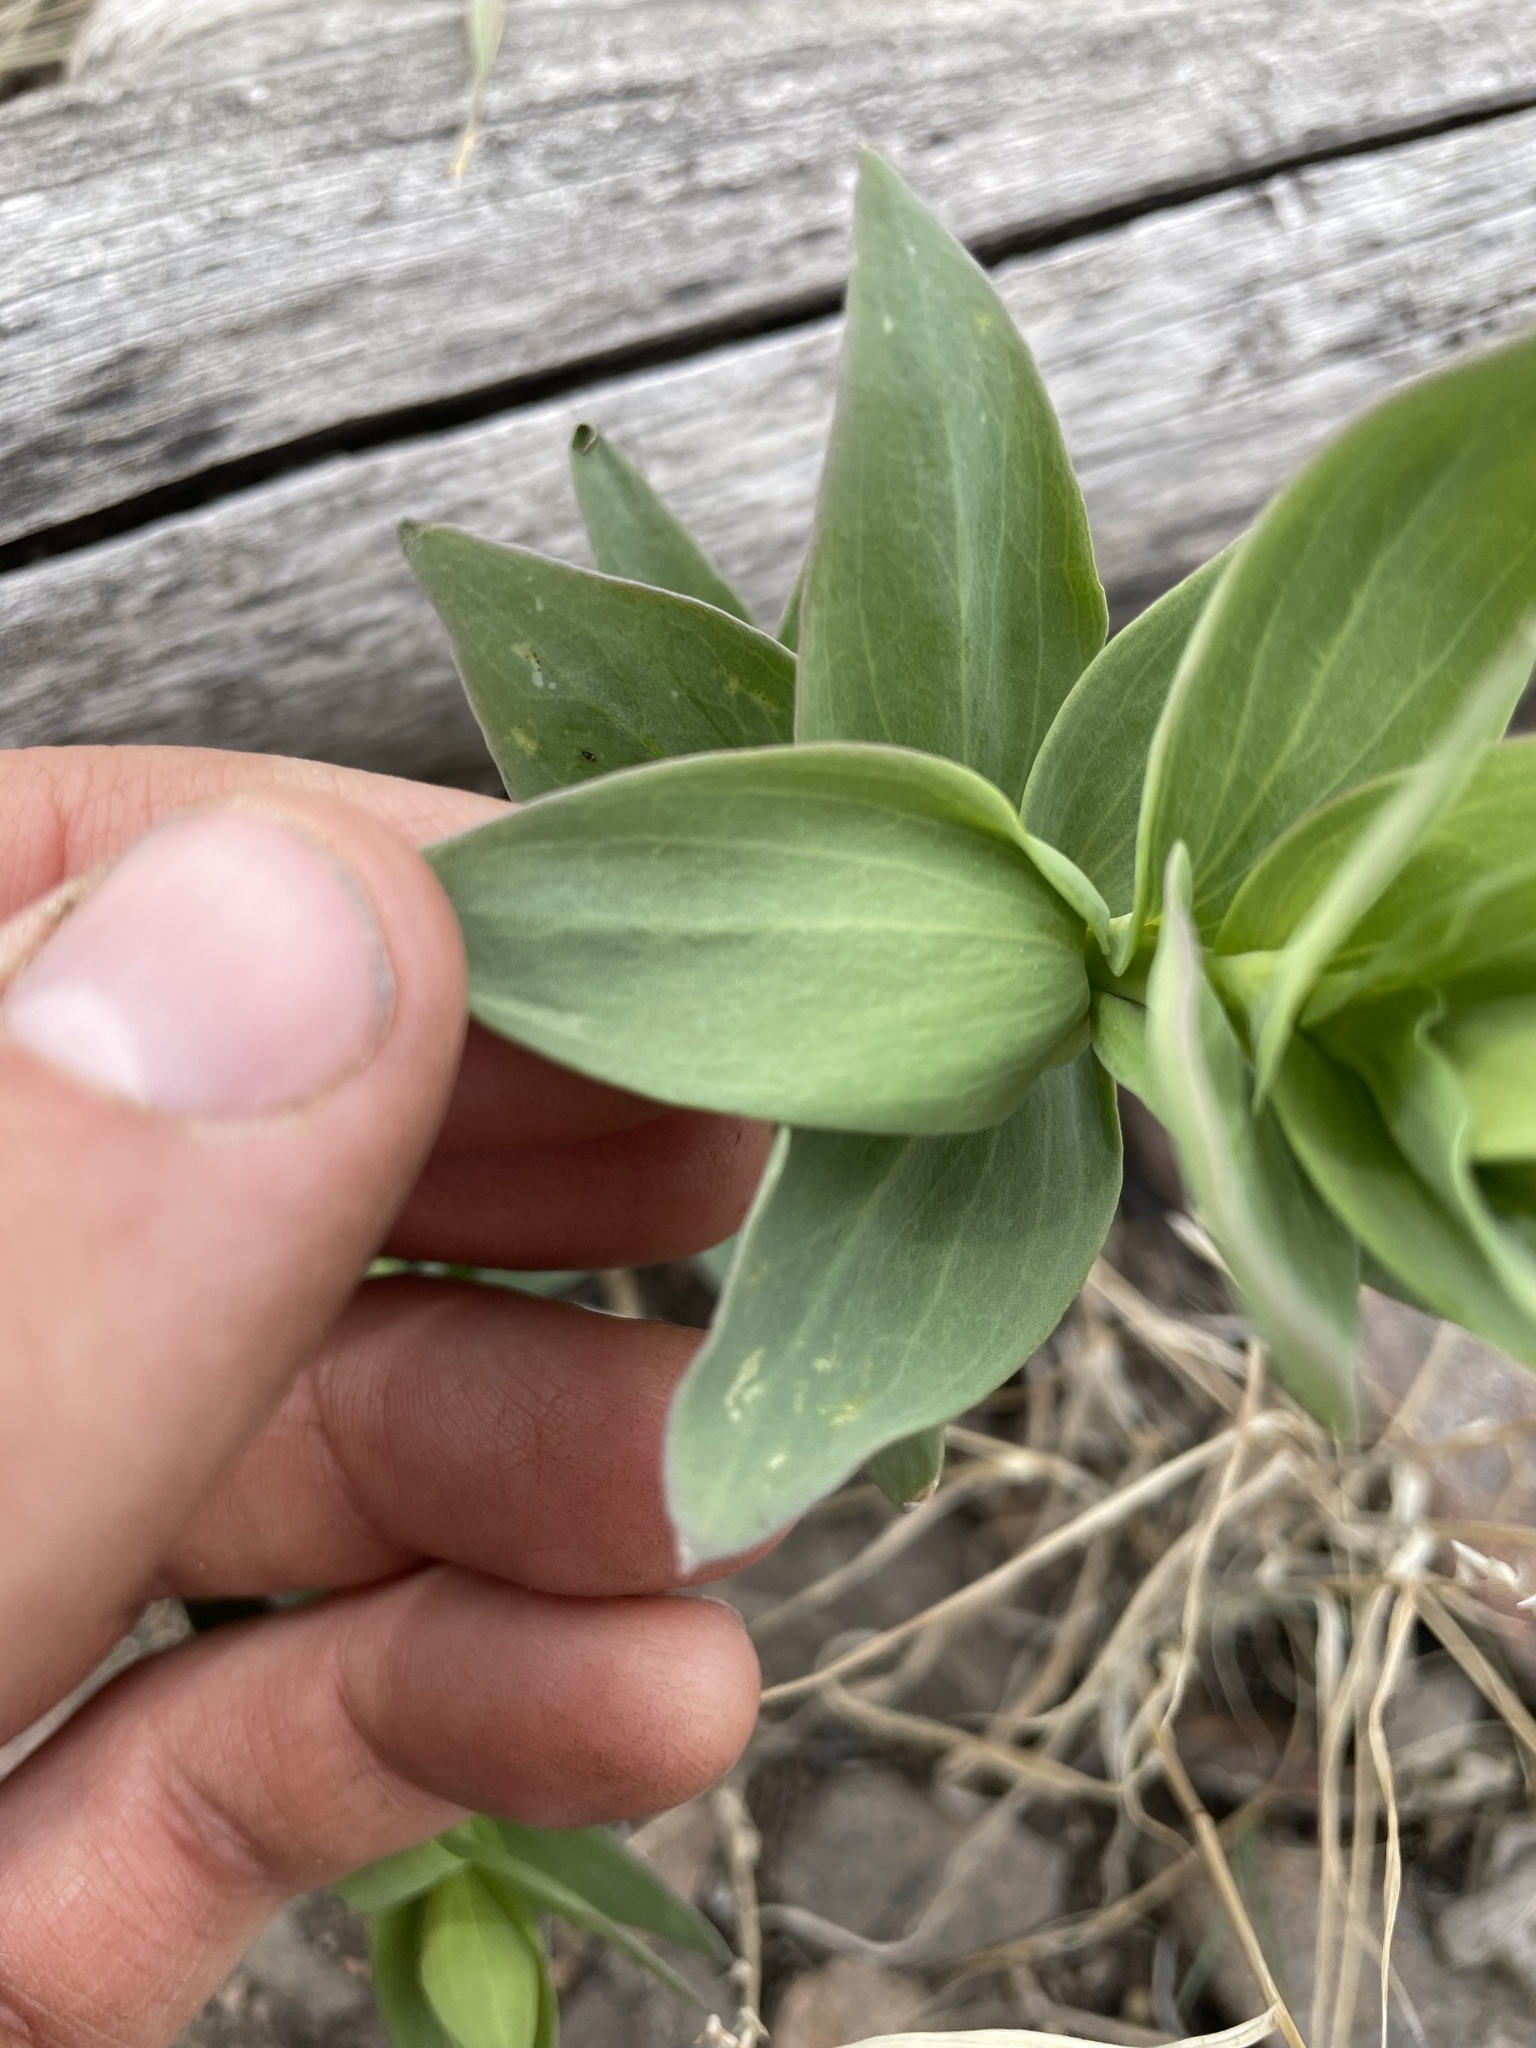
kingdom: Plantae
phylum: Tracheophyta
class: Magnoliopsida
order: Lamiales
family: Plantaginaceae
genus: Linaria
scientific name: Linaria dalmatica
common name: Dalmatian toadflax
